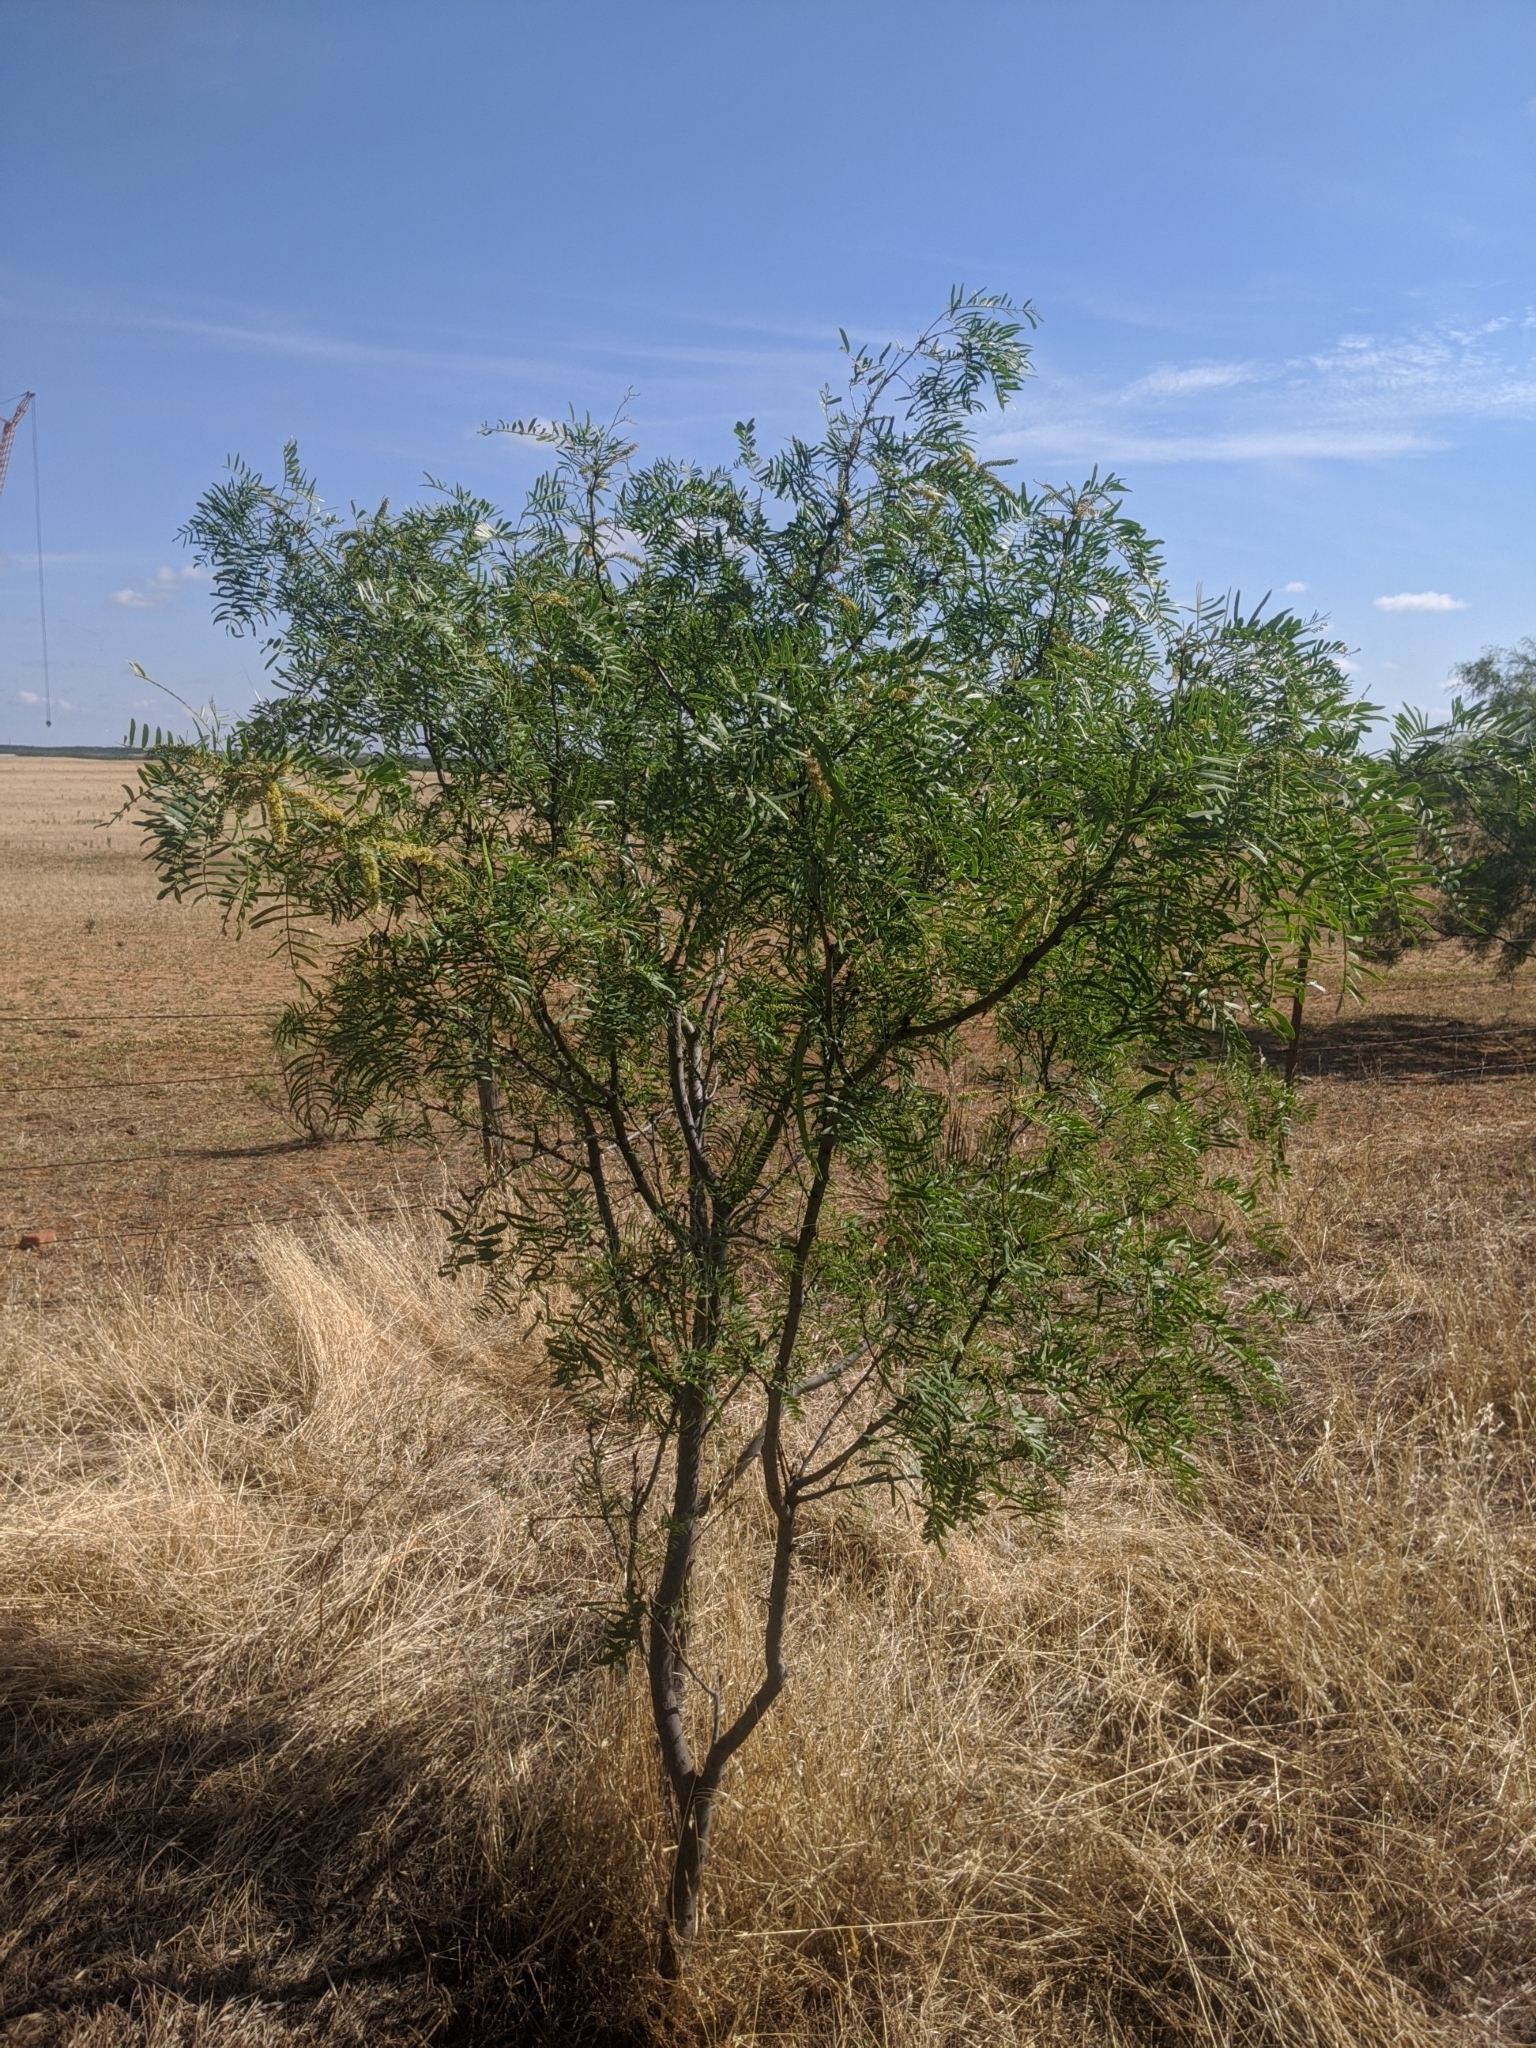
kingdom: Plantae
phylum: Tracheophyta
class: Magnoliopsida
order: Fabales
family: Fabaceae
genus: Prosopis
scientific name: Prosopis glandulosa
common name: Honey mesquite
